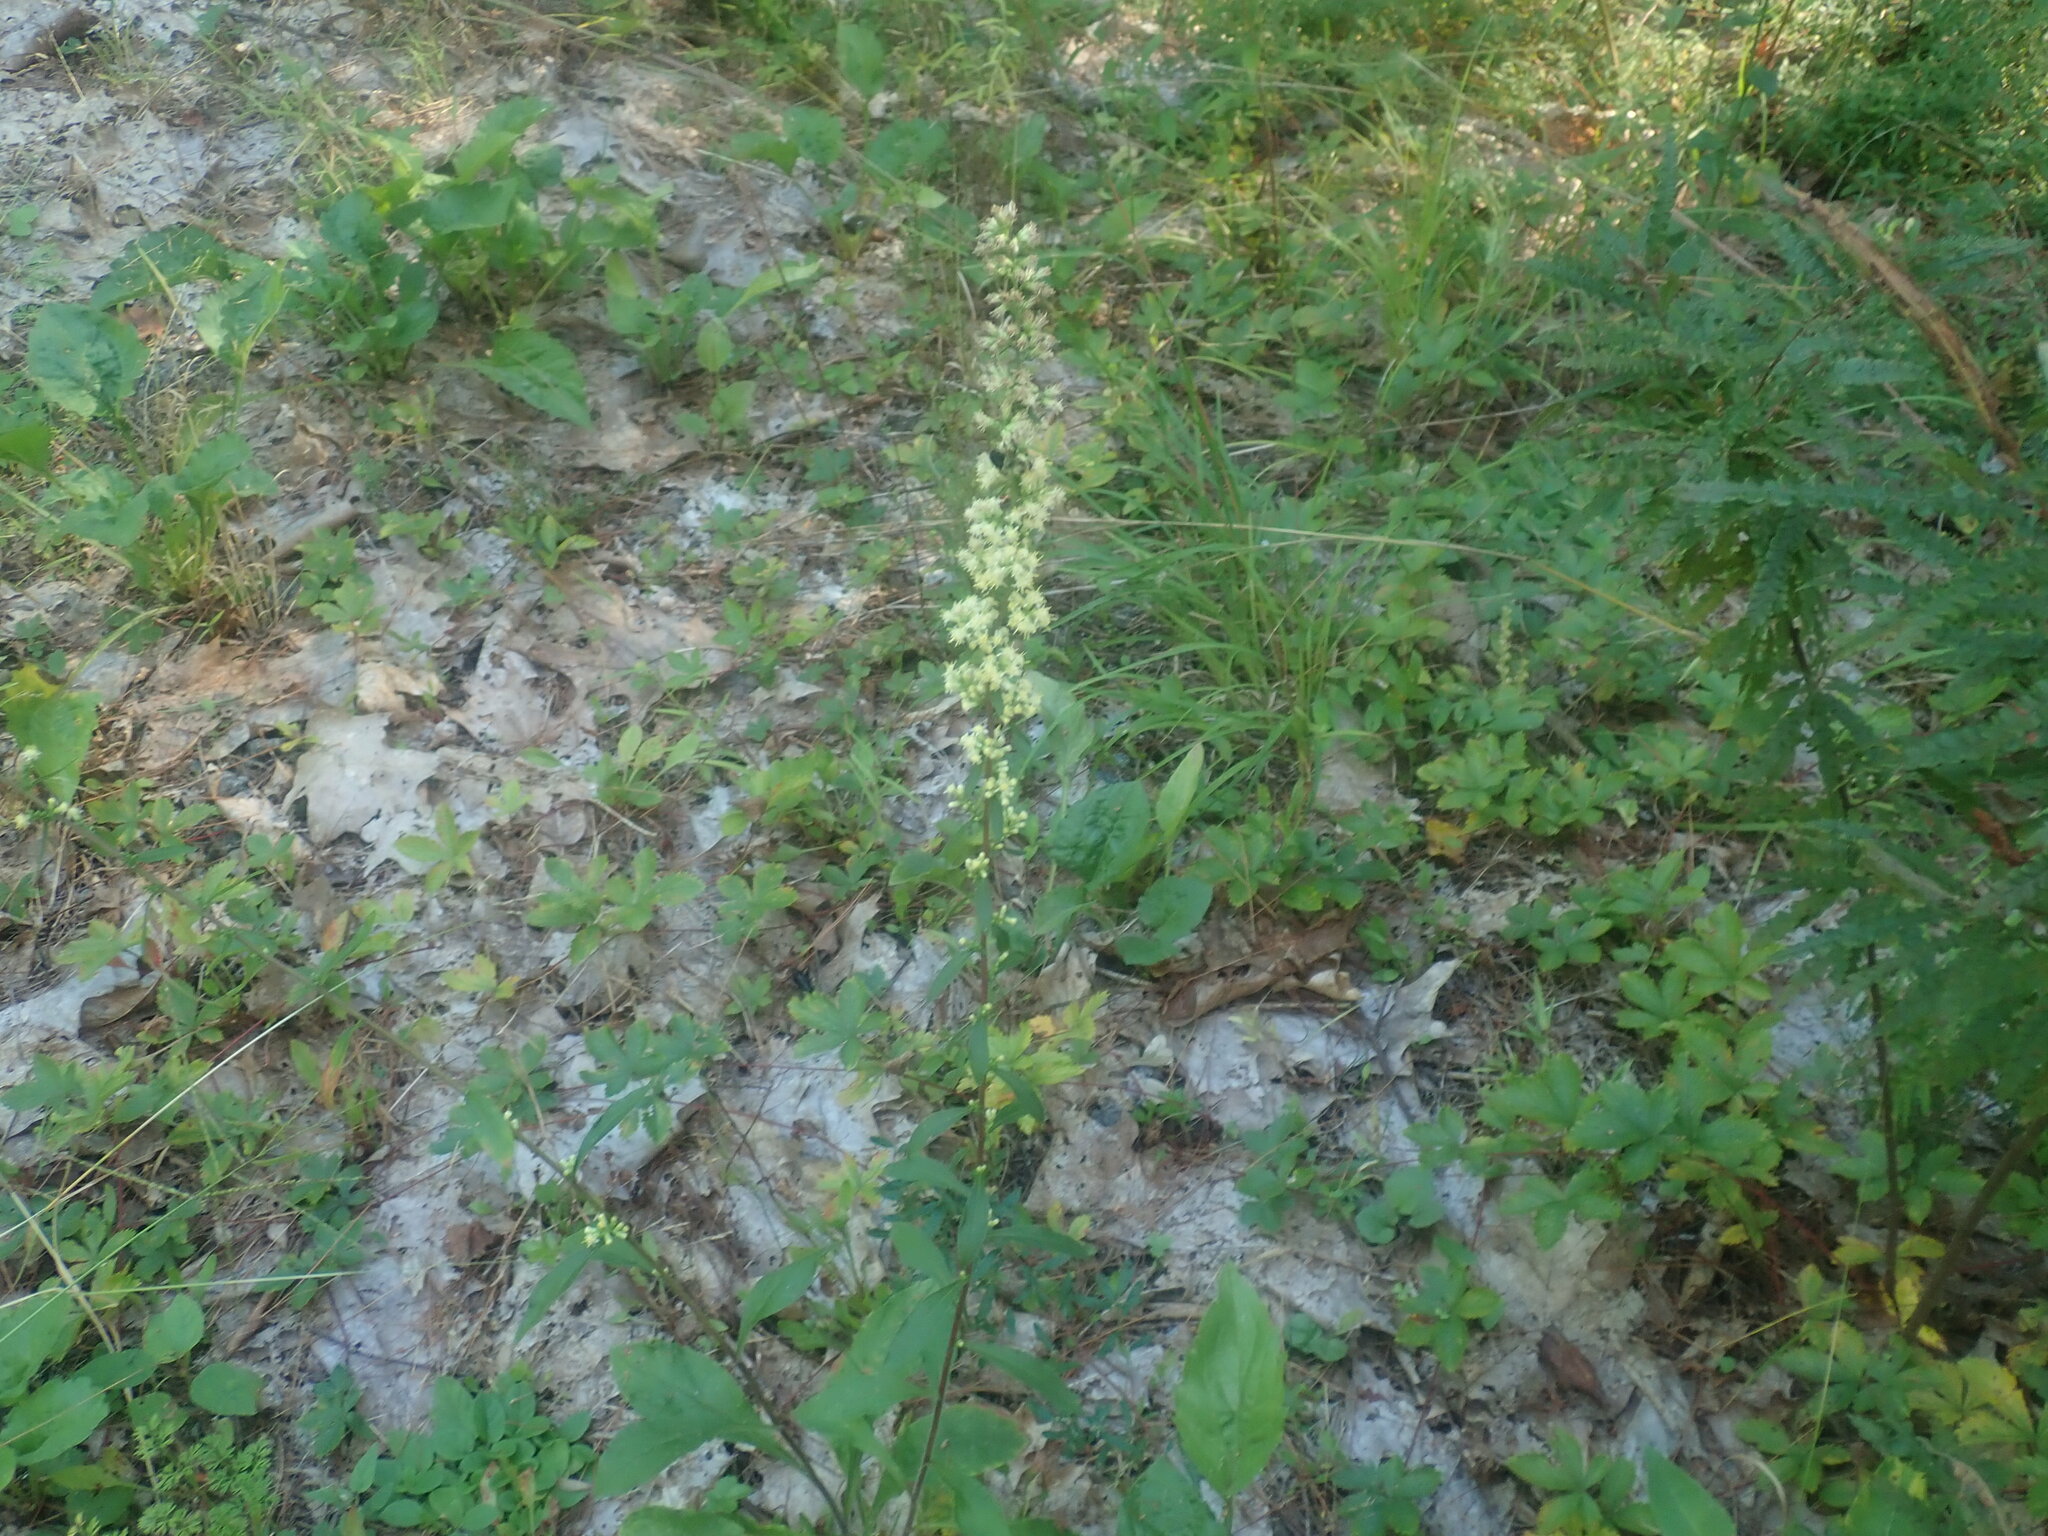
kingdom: Plantae
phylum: Tracheophyta
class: Magnoliopsida
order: Asterales
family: Asteraceae
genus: Solidago
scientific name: Solidago bicolor
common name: Silverrod
